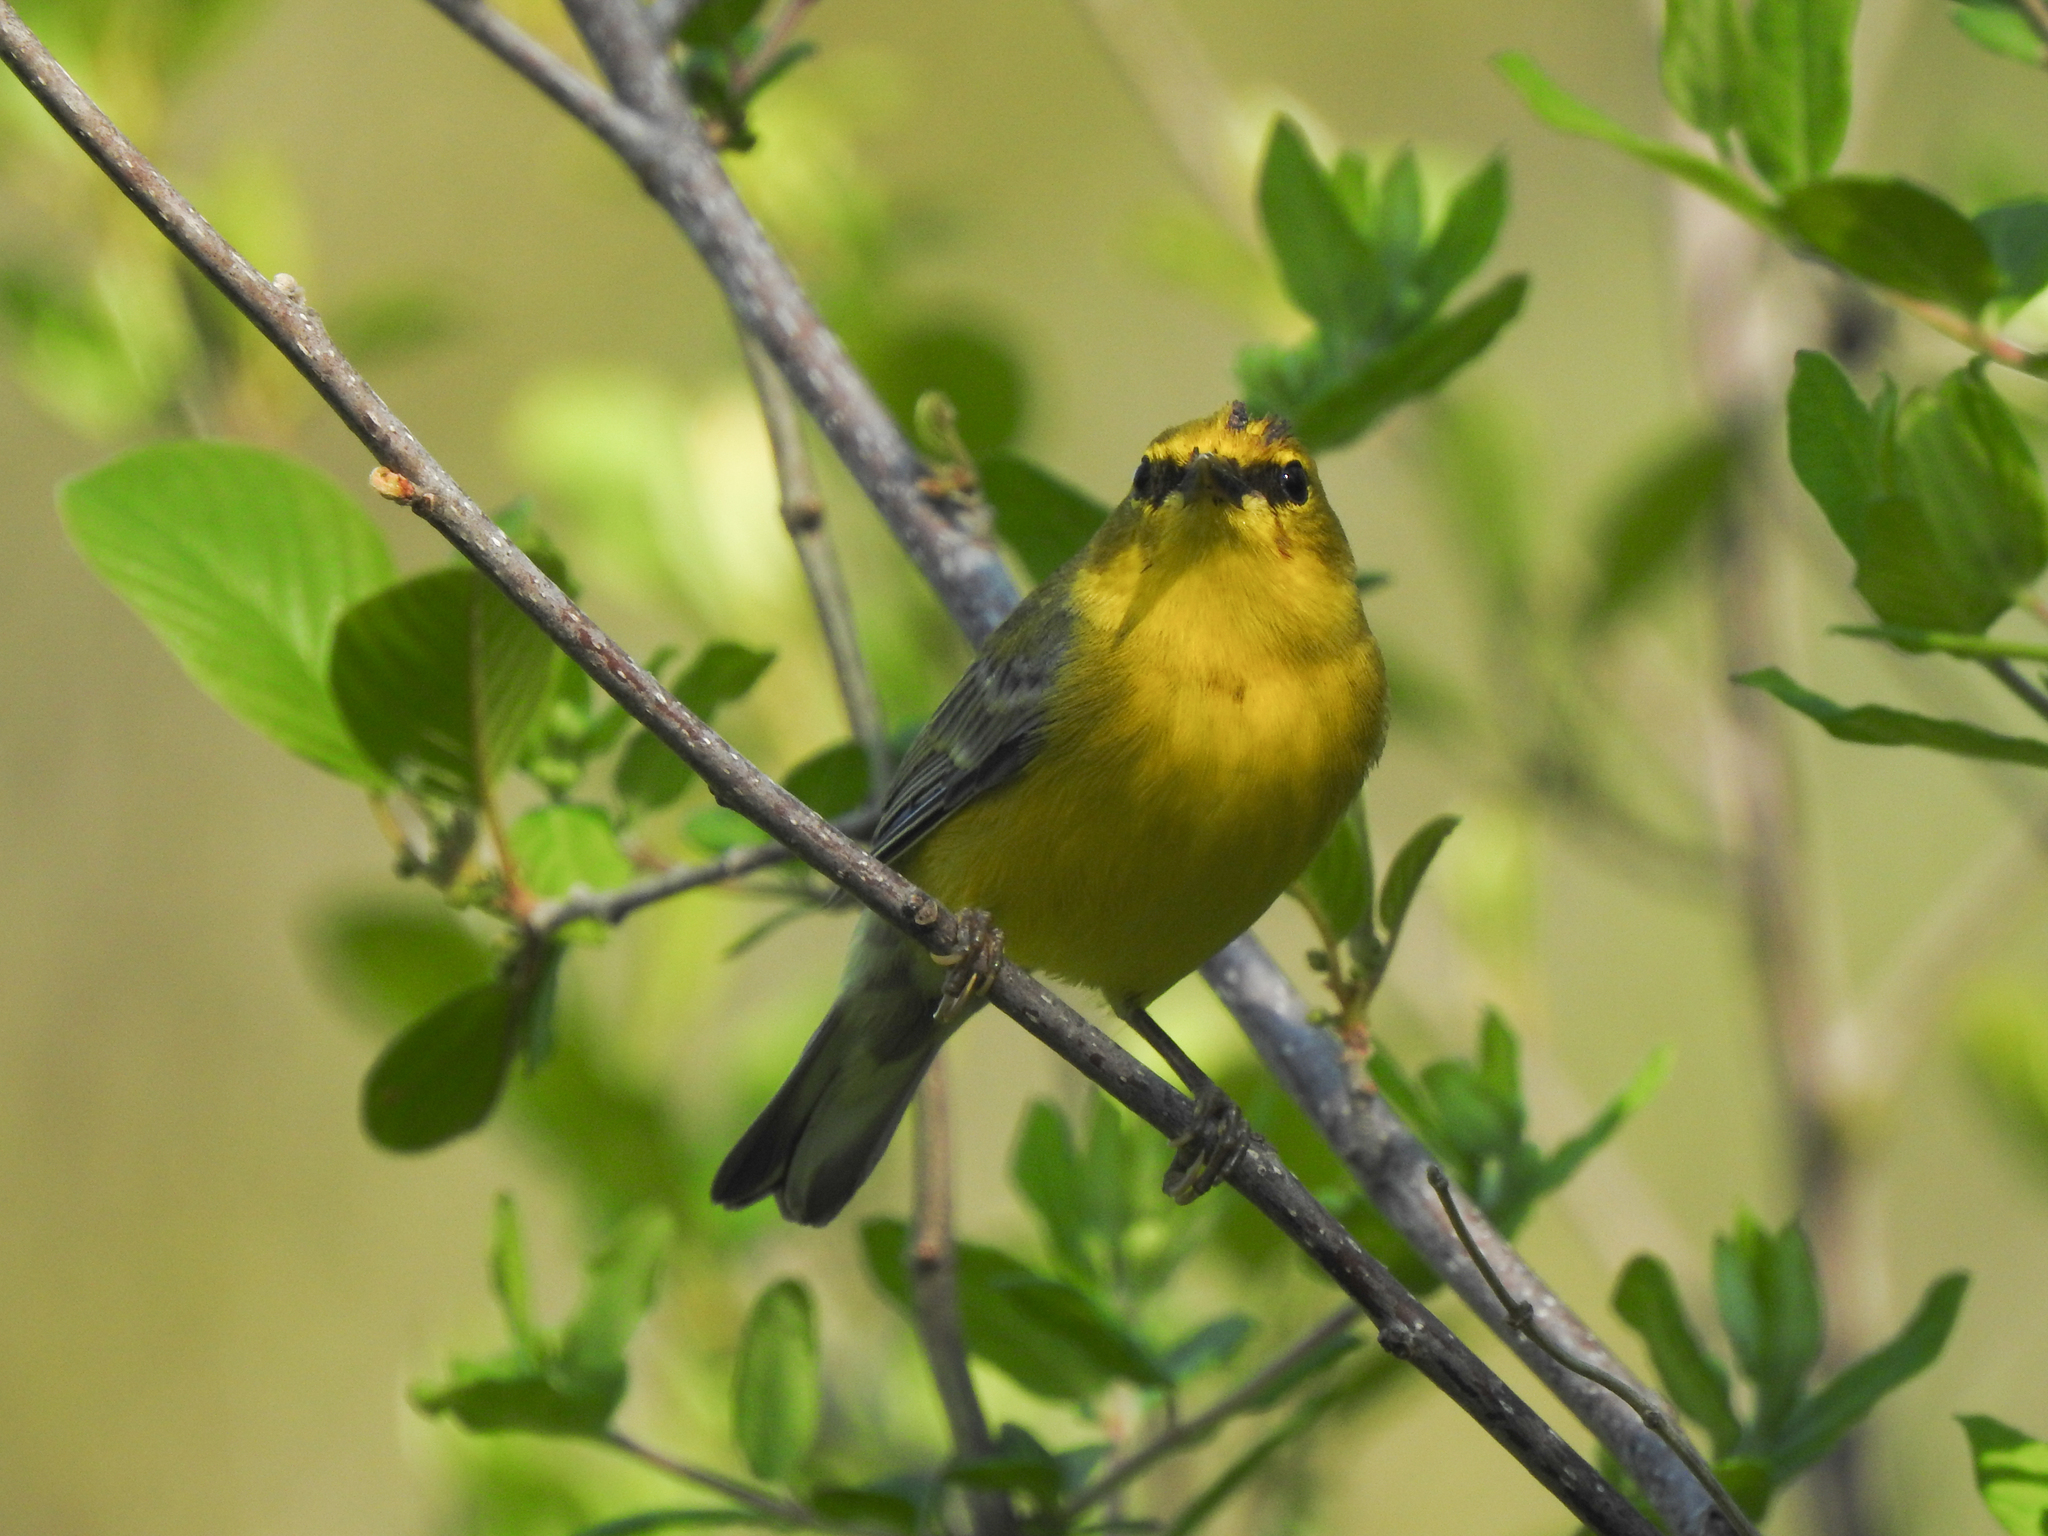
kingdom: Animalia
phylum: Chordata
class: Aves
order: Passeriformes
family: Parulidae
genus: Vermivora
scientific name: Vermivora cyanoptera
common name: Blue-winged warbler
